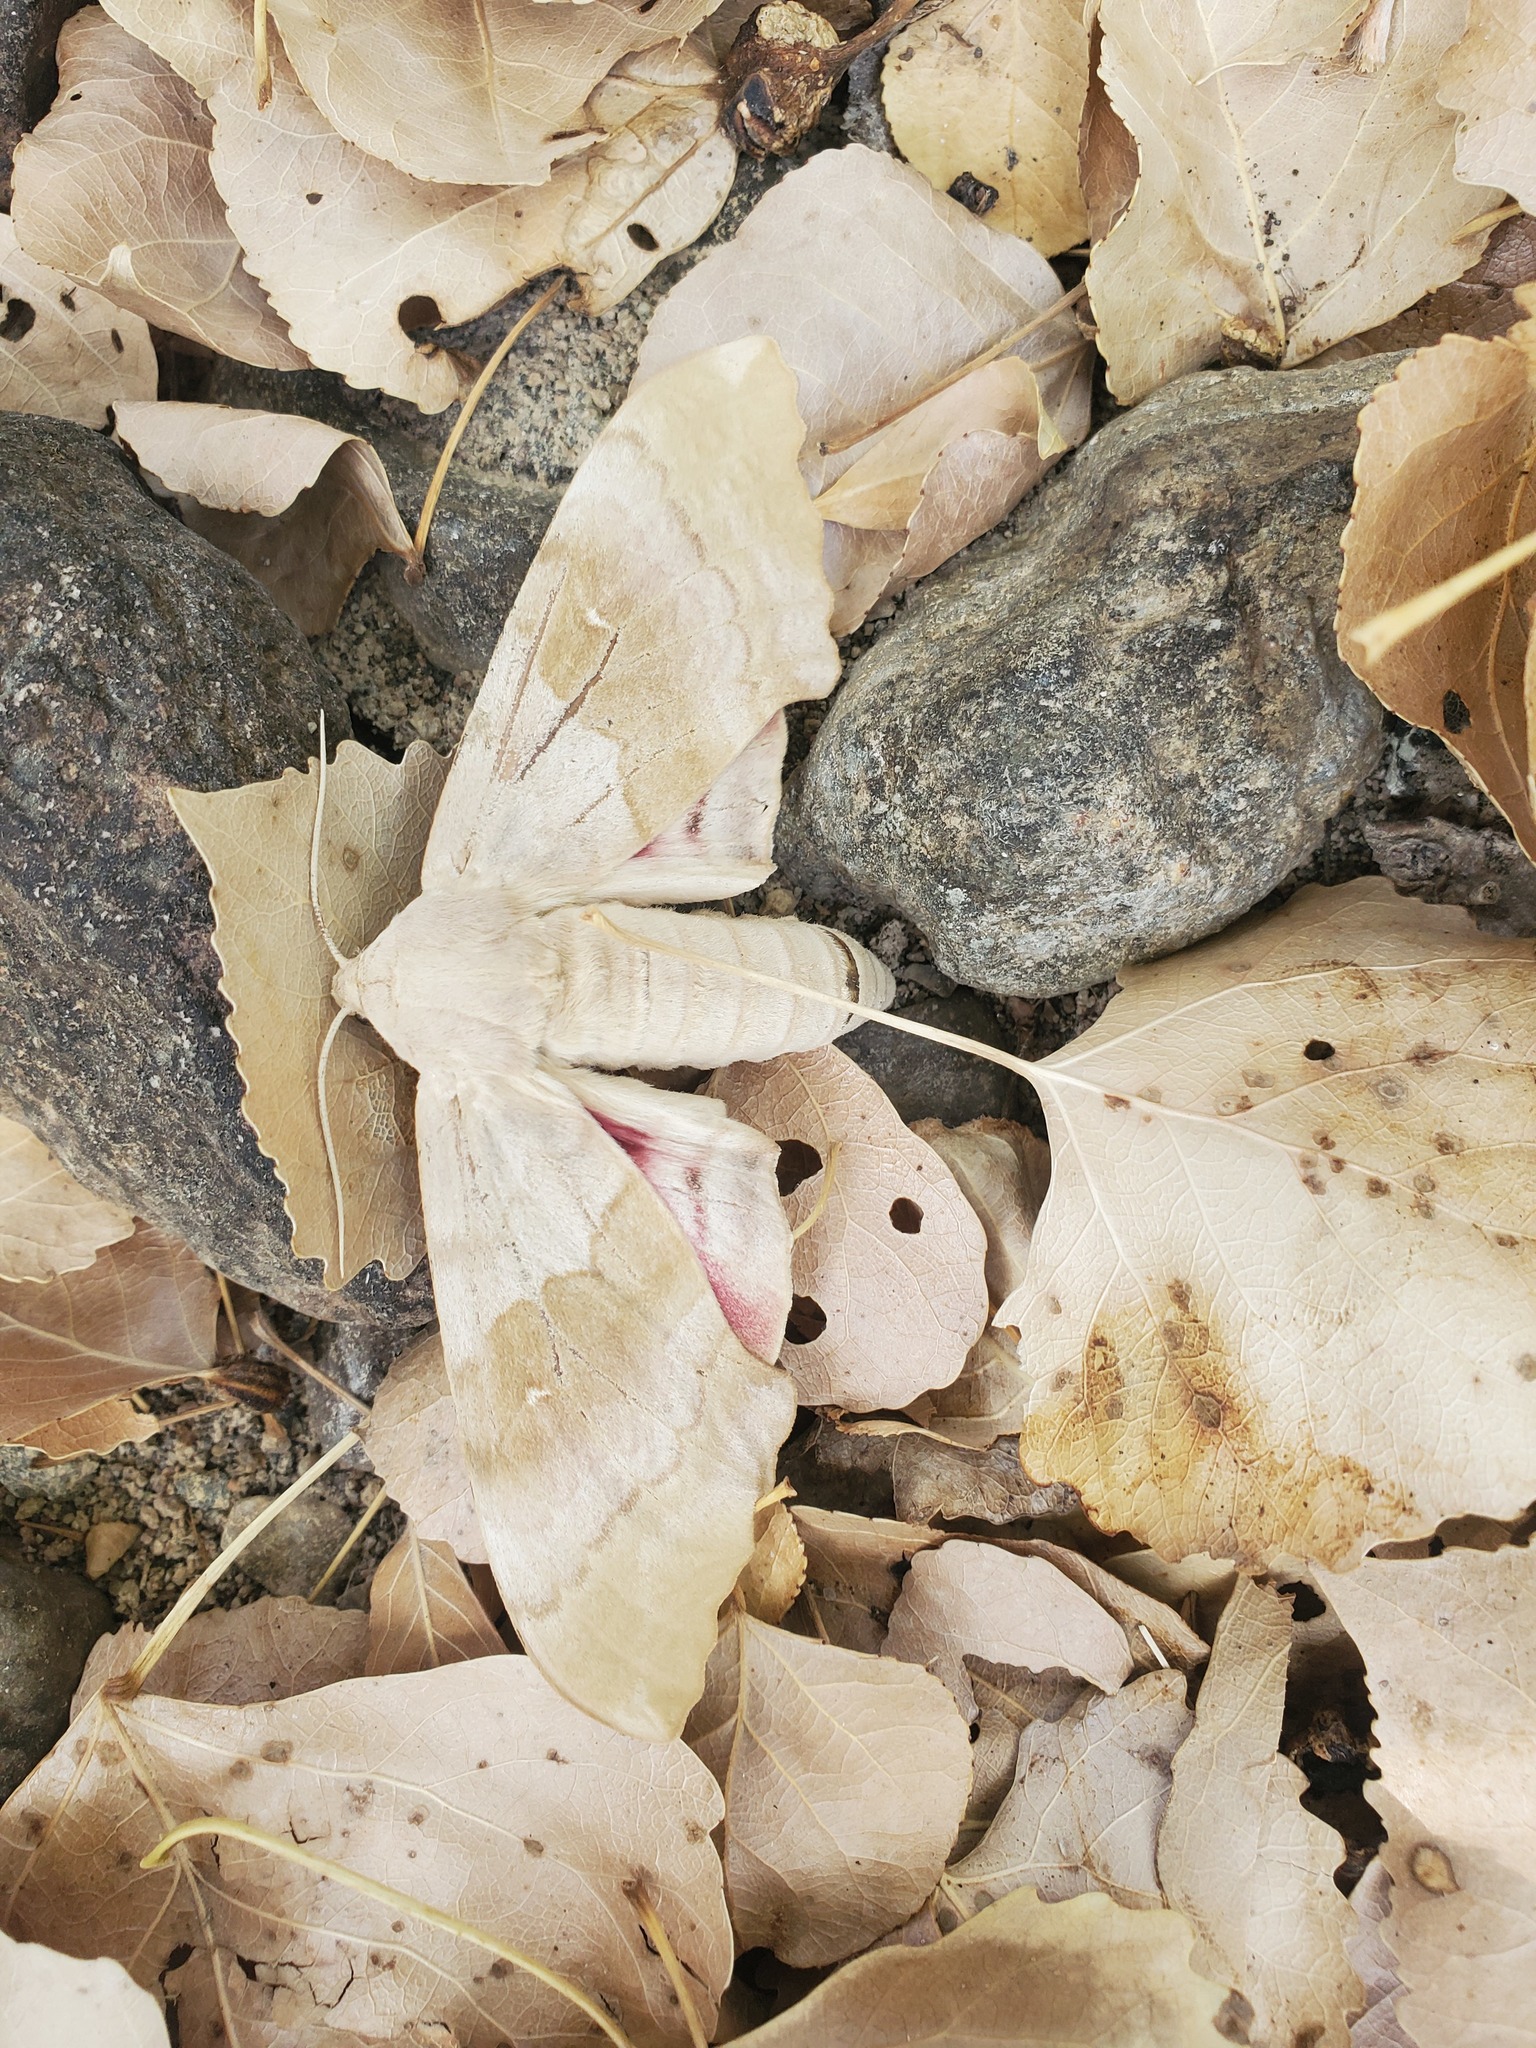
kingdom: Animalia
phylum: Arthropoda
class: Insecta
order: Lepidoptera
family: Sphingidae
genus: Pachysphinx
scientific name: Pachysphinx occidentalis
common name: Western poplar sphinx
